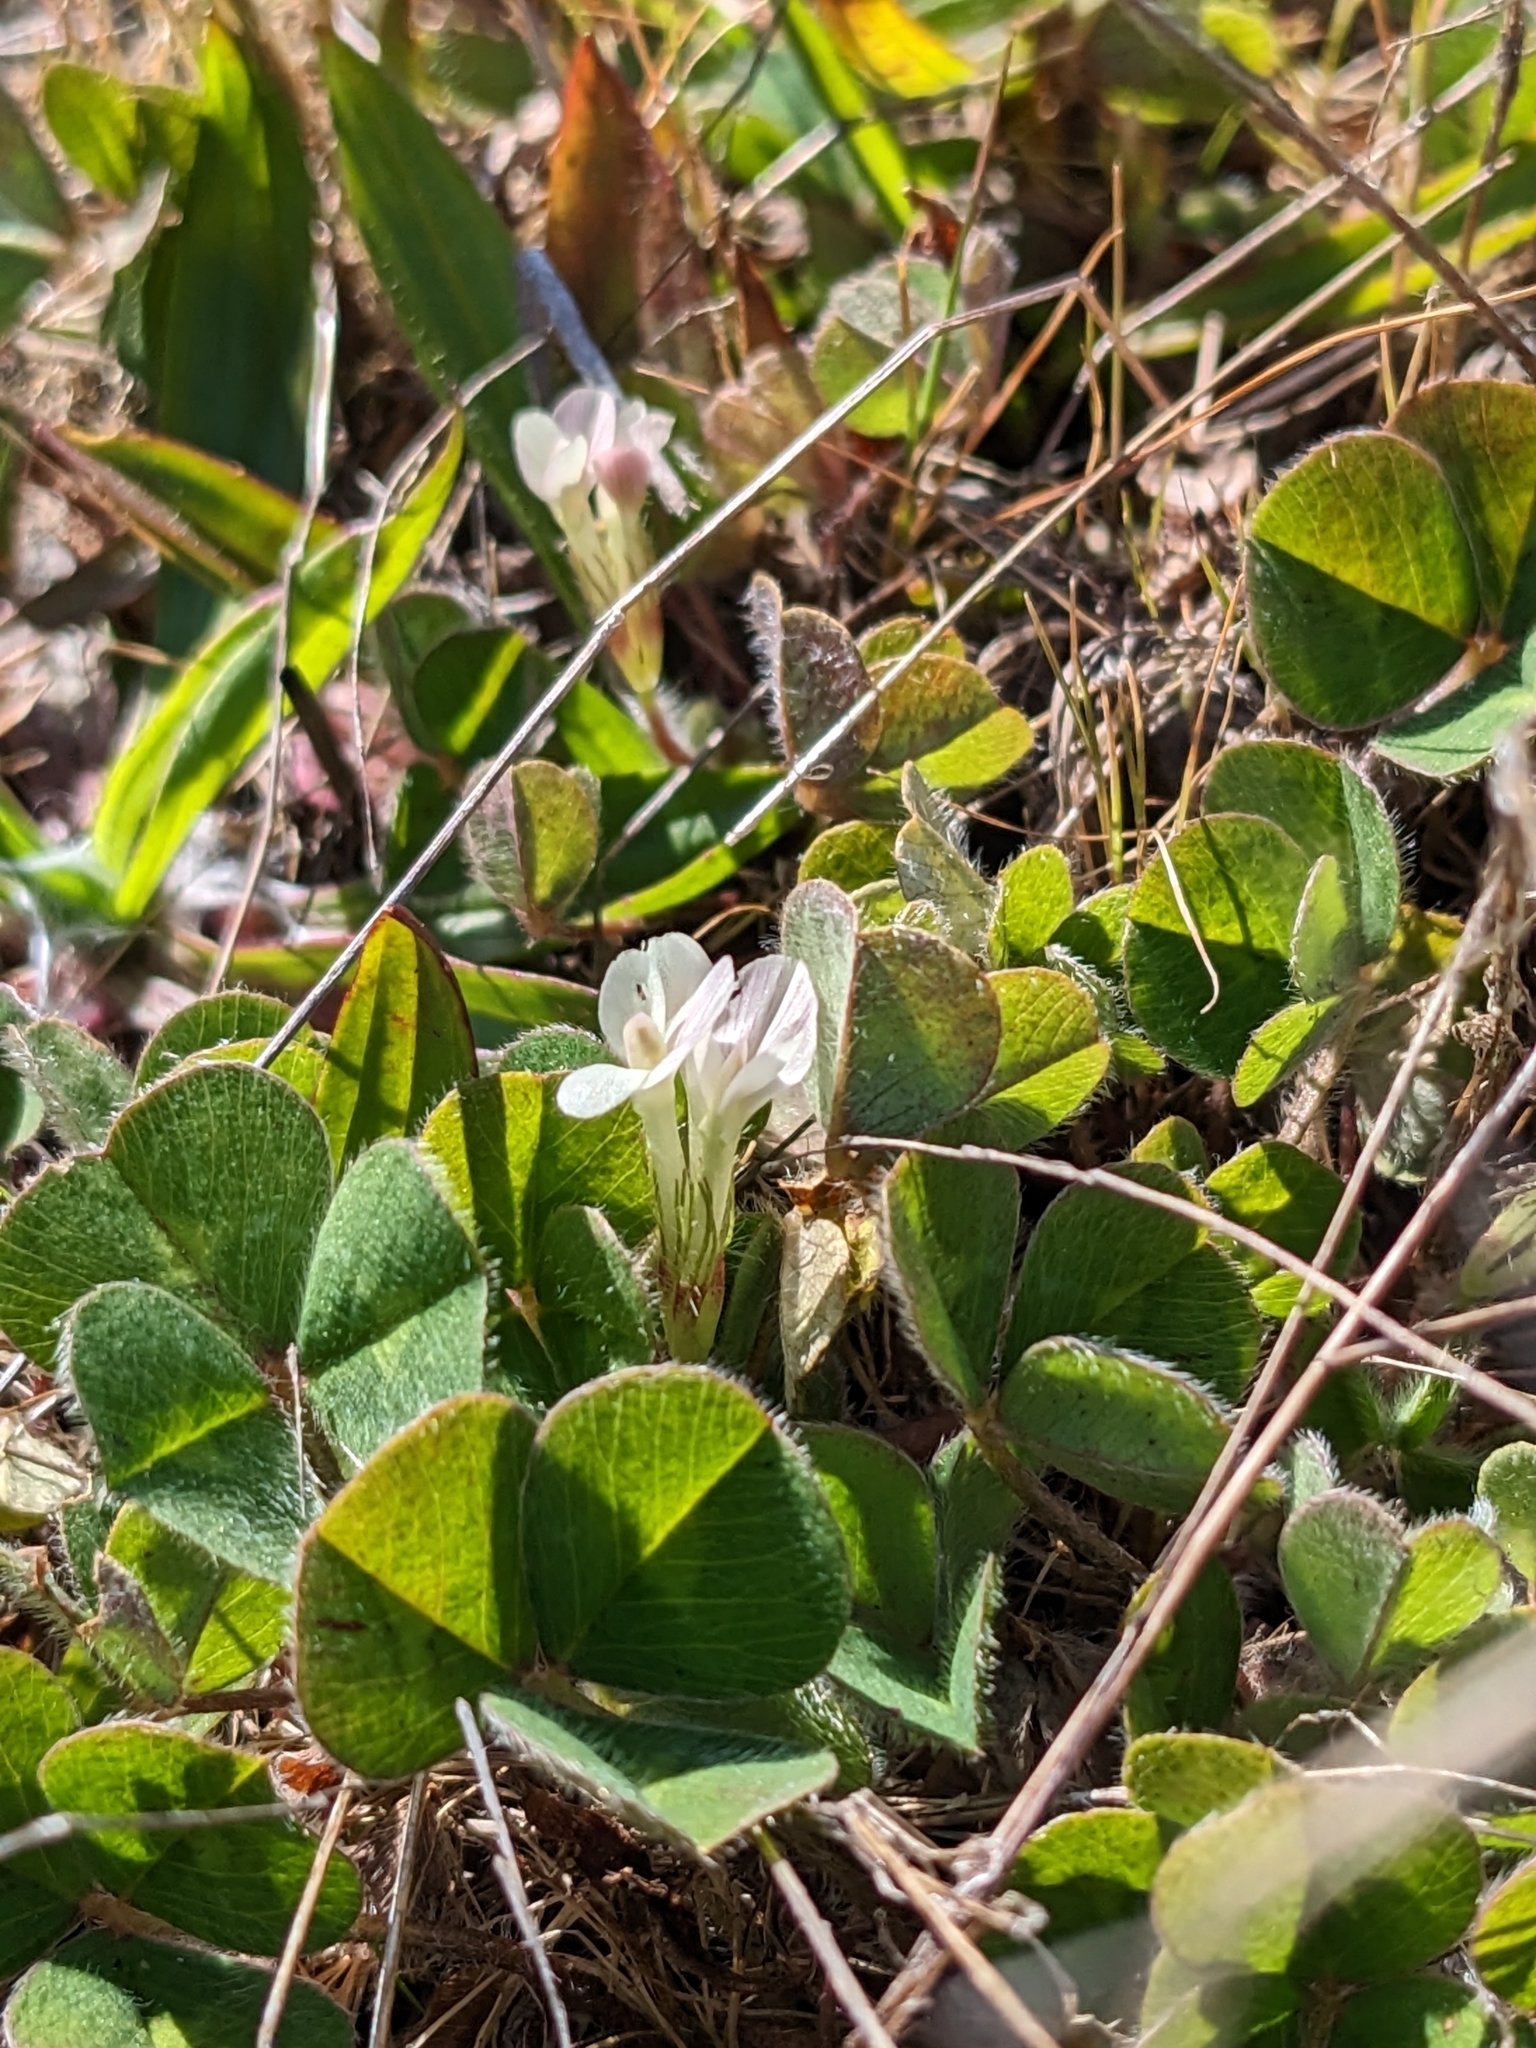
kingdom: Plantae
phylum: Tracheophyta
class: Magnoliopsida
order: Fabales
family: Fabaceae
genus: Trifolium
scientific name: Trifolium subterraneum
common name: Subterranean clover
